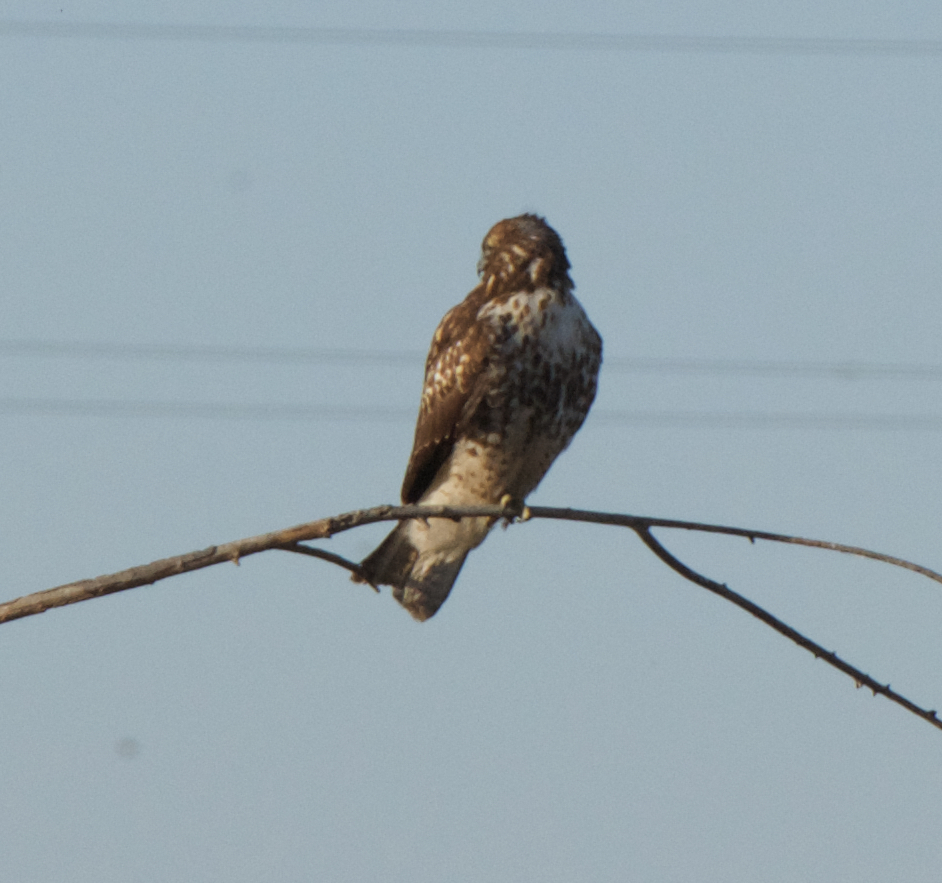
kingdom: Animalia
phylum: Chordata
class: Aves
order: Accipitriformes
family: Accipitridae
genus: Buteo
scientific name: Buteo jamaicensis
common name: Red-tailed hawk
